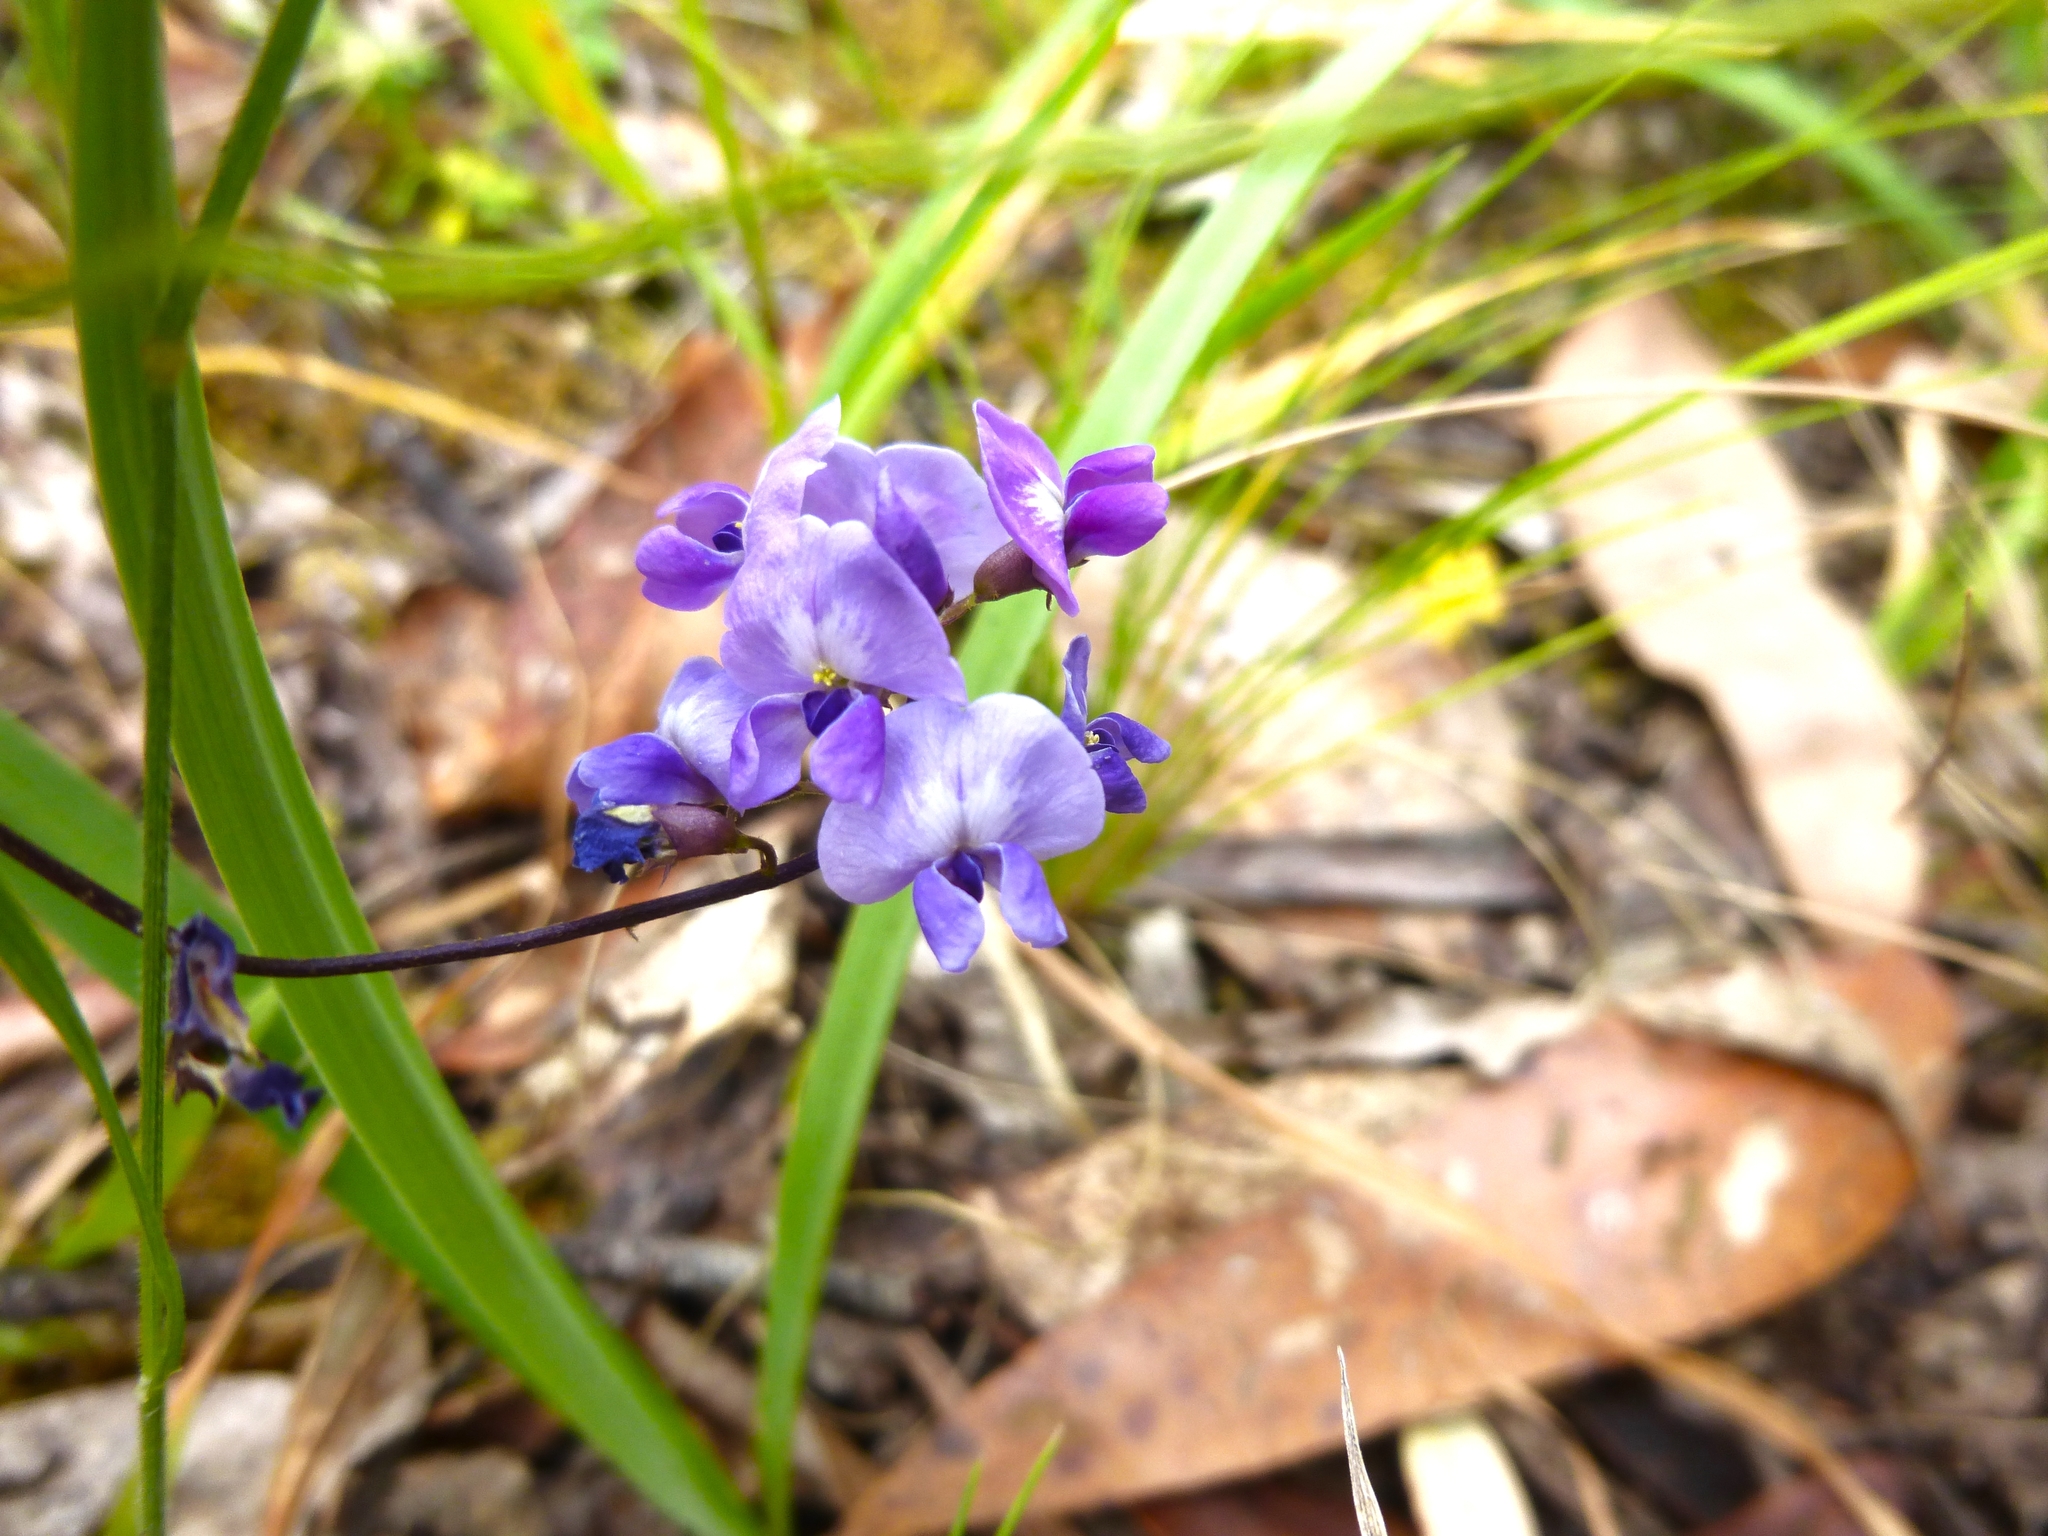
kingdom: Plantae
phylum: Tracheophyta
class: Magnoliopsida
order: Fabales
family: Fabaceae
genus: Glycine
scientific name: Glycine microphylla
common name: Small-leaf glycine
